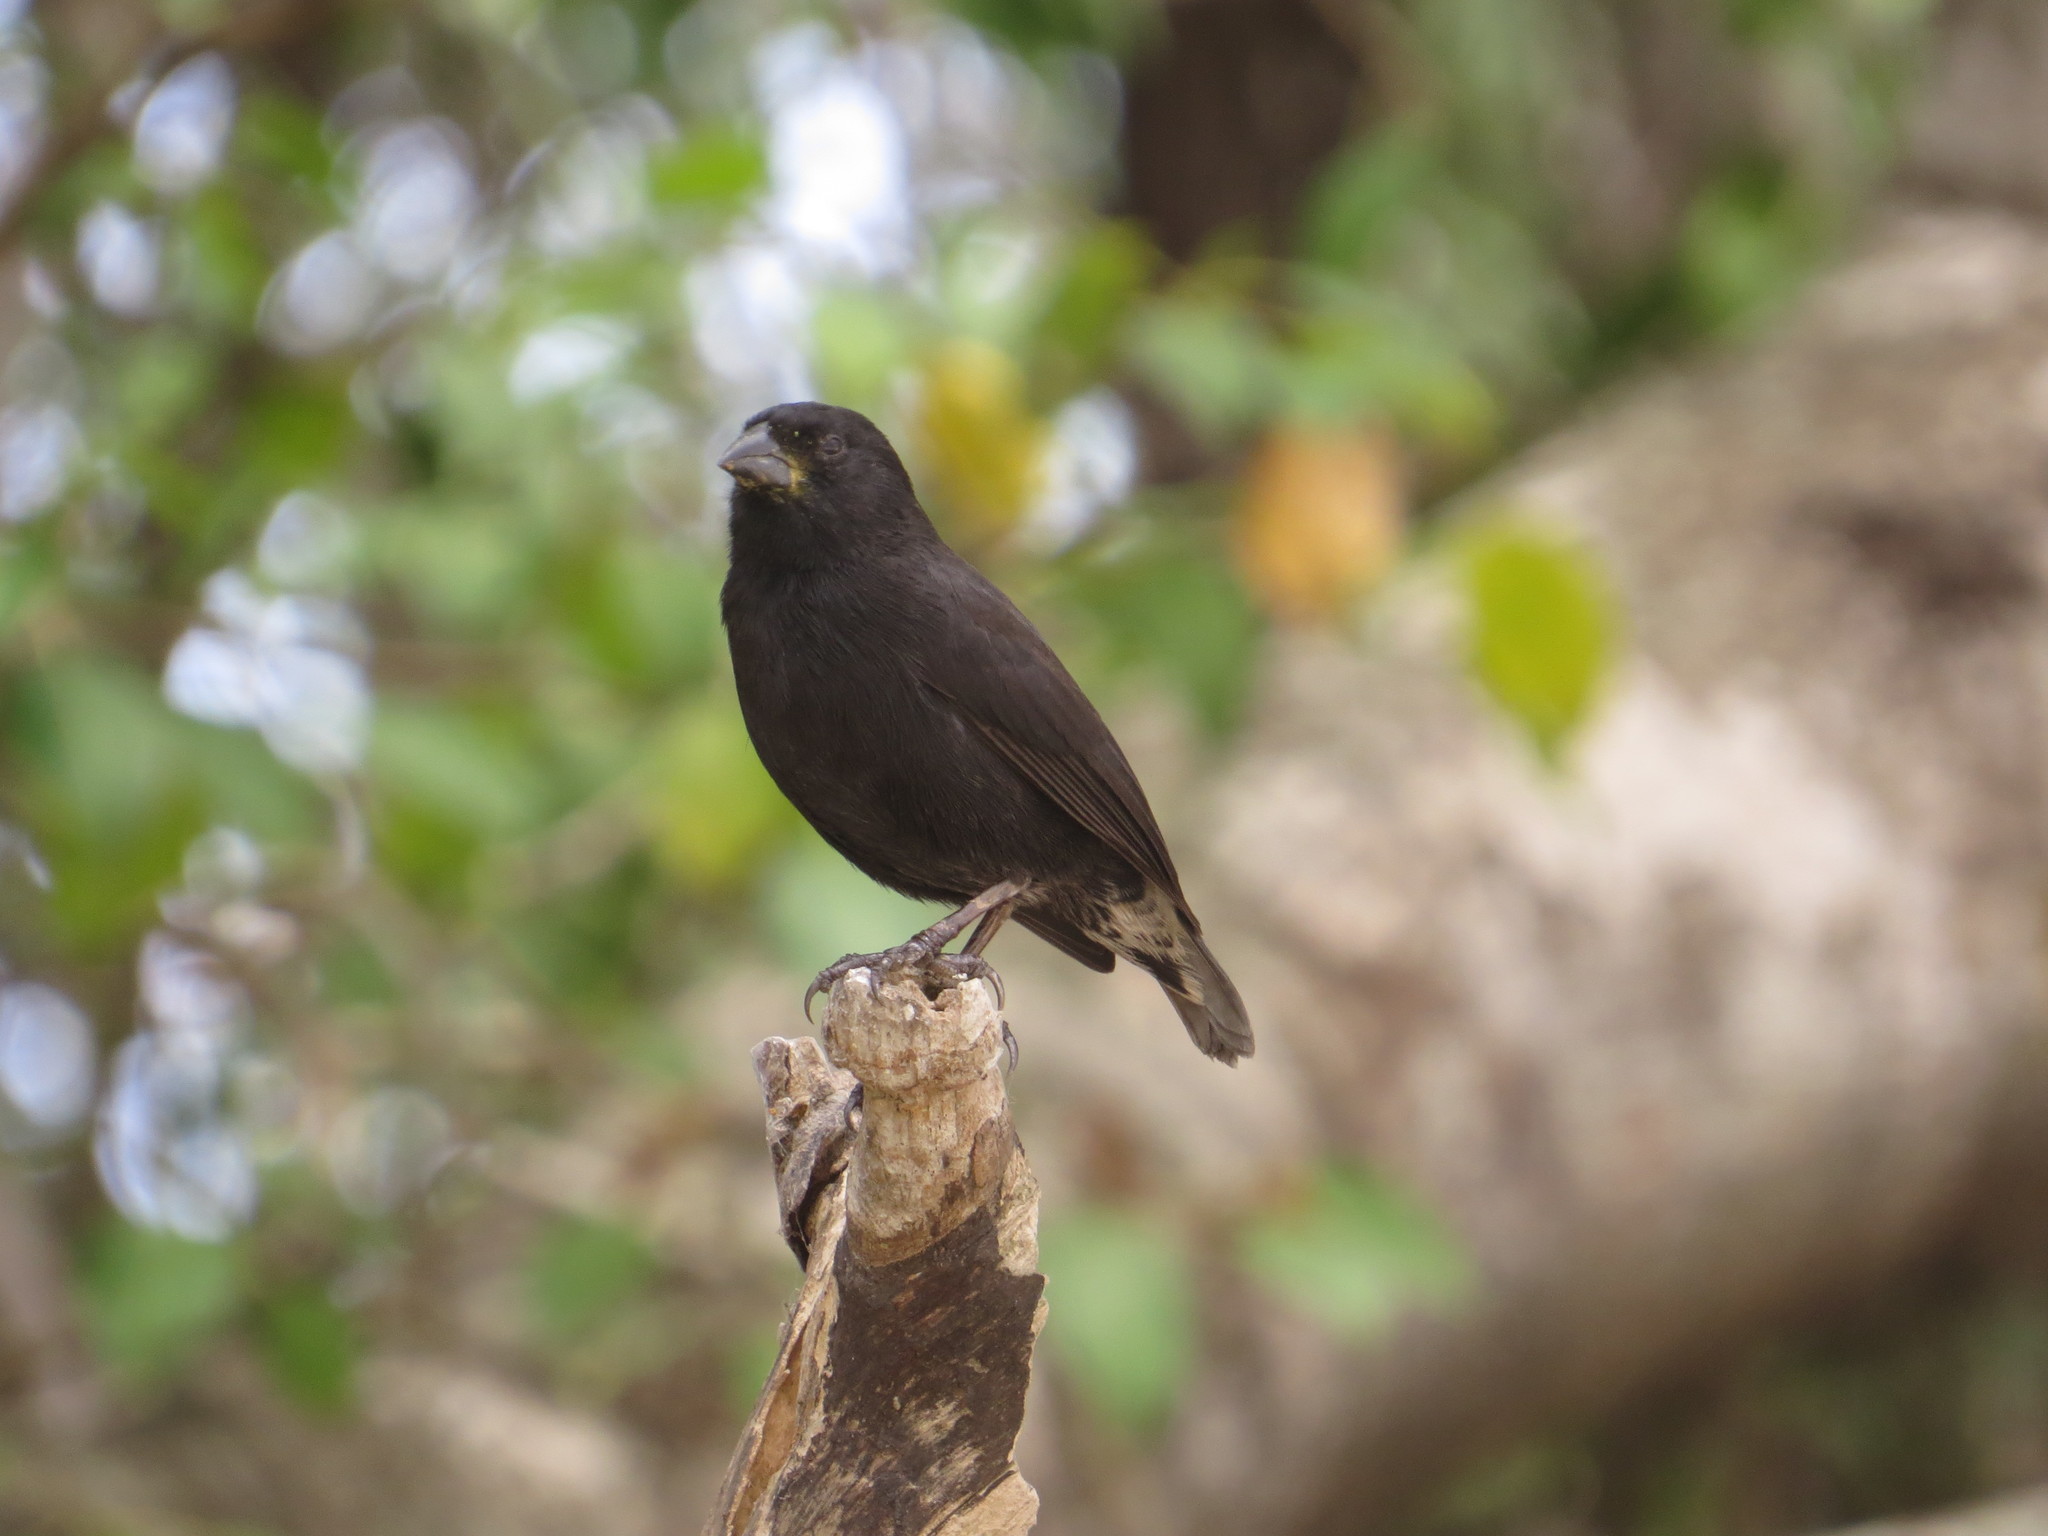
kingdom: Animalia
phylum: Chordata
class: Aves
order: Passeriformes
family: Thraupidae
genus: Geospiza
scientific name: Geospiza fuliginosa
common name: Small ground finch
